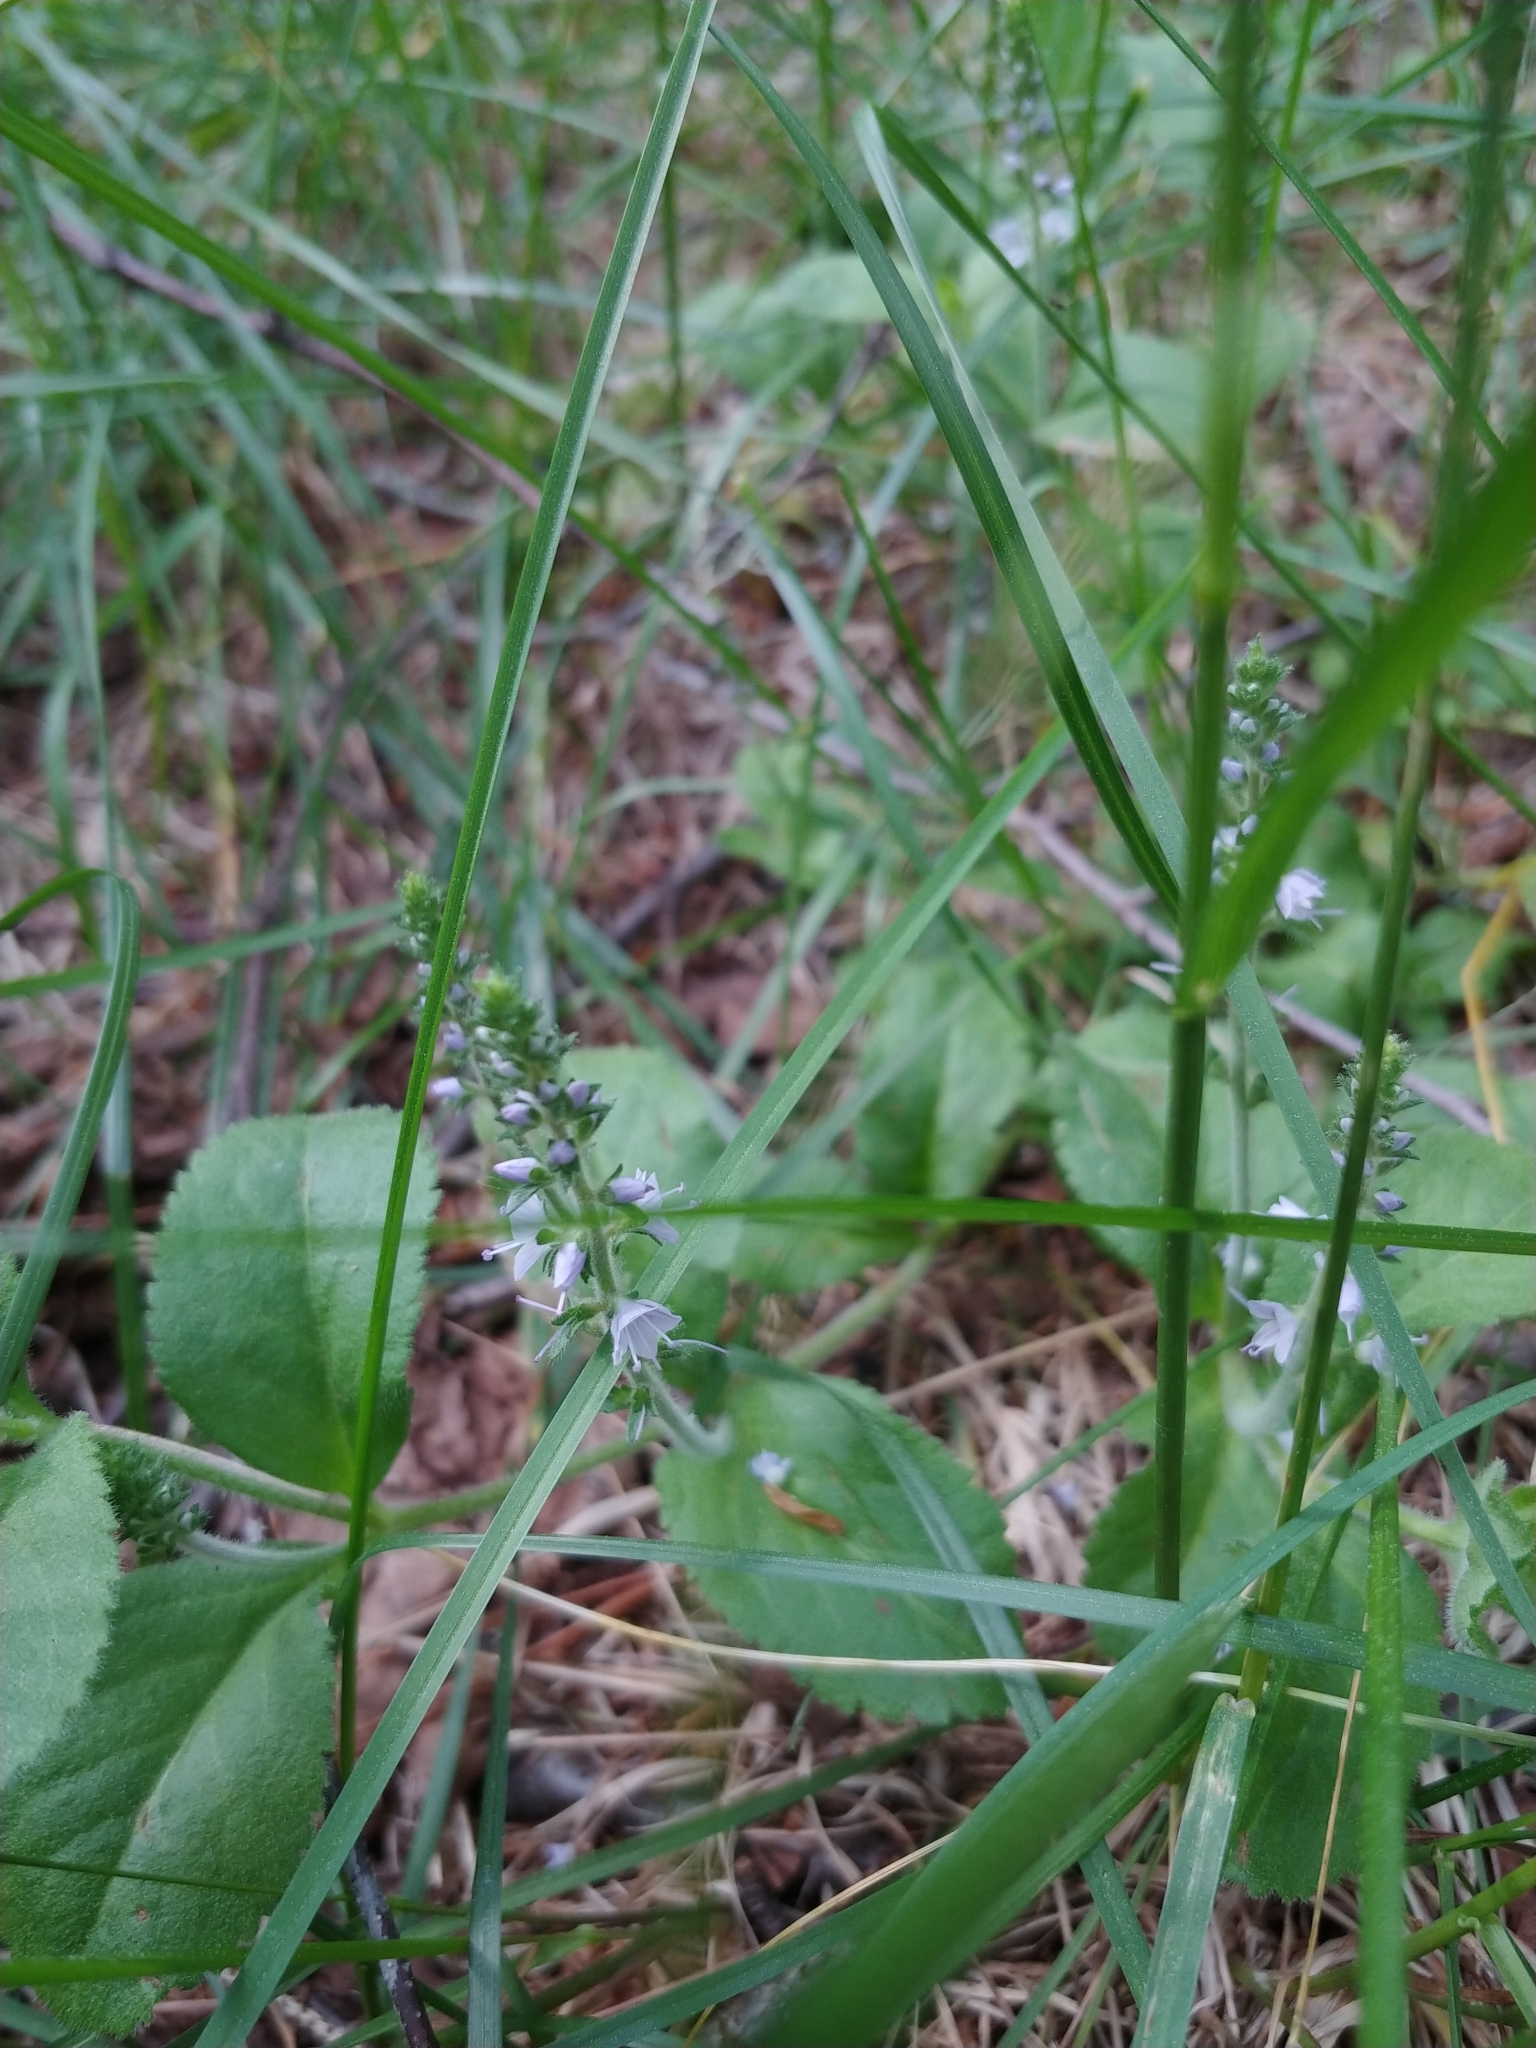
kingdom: Plantae
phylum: Tracheophyta
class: Magnoliopsida
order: Lamiales
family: Plantaginaceae
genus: Veronica
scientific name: Veronica officinalis
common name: Common speedwell
